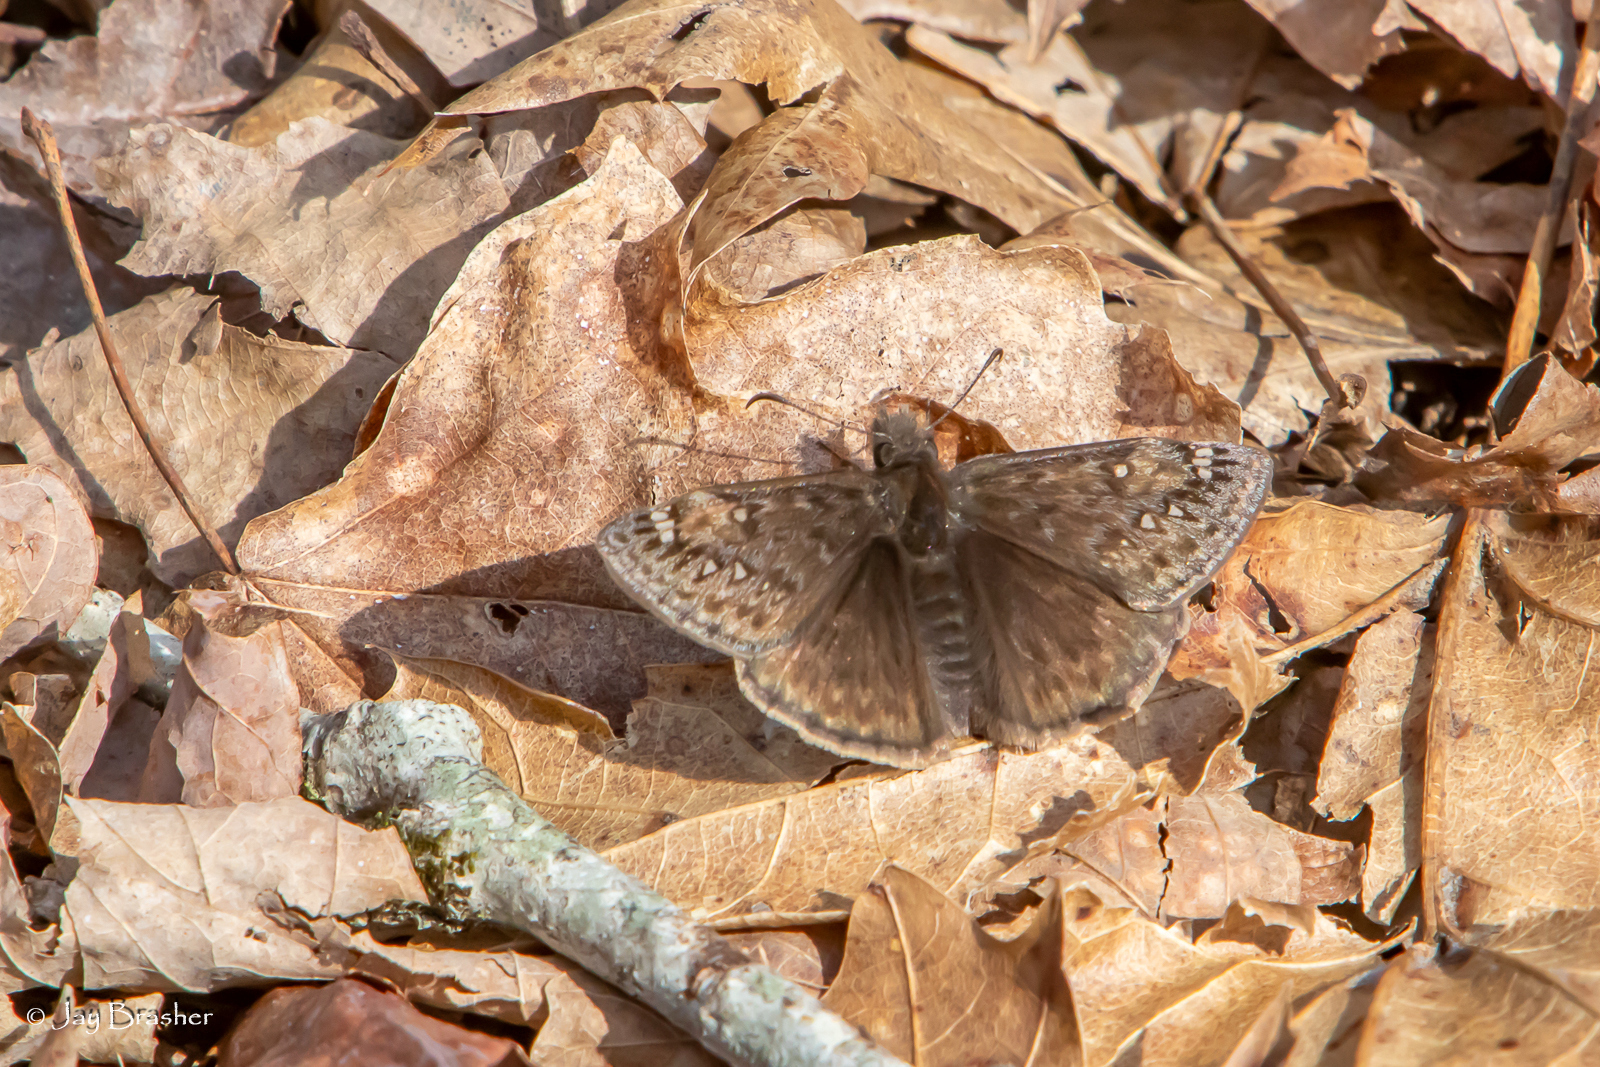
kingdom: Animalia
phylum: Arthropoda
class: Insecta
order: Lepidoptera
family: Hesperiidae
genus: Erynnis
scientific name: Erynnis juvenalis
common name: Juvenal's duskywing
